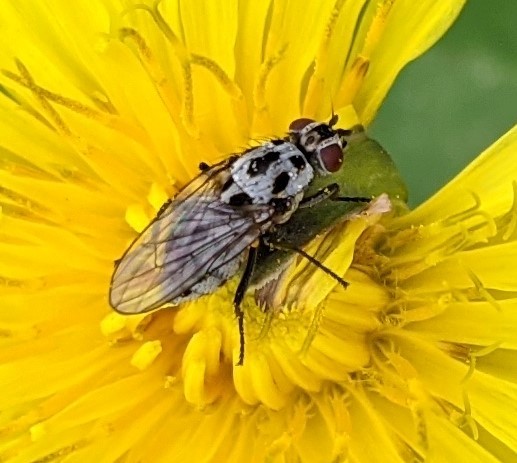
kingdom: Animalia
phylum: Arthropoda
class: Insecta
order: Diptera
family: Anthomyiidae
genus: Anthomyia
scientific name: Anthomyia pluvialis
